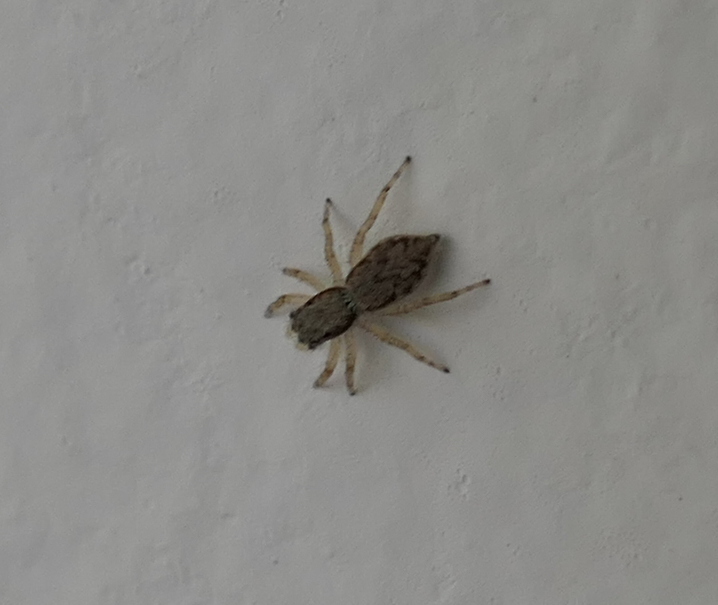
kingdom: Animalia
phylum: Arthropoda
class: Arachnida
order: Araneae
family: Salticidae
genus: Menemerus
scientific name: Menemerus bivittatus
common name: Gray wall jumper
